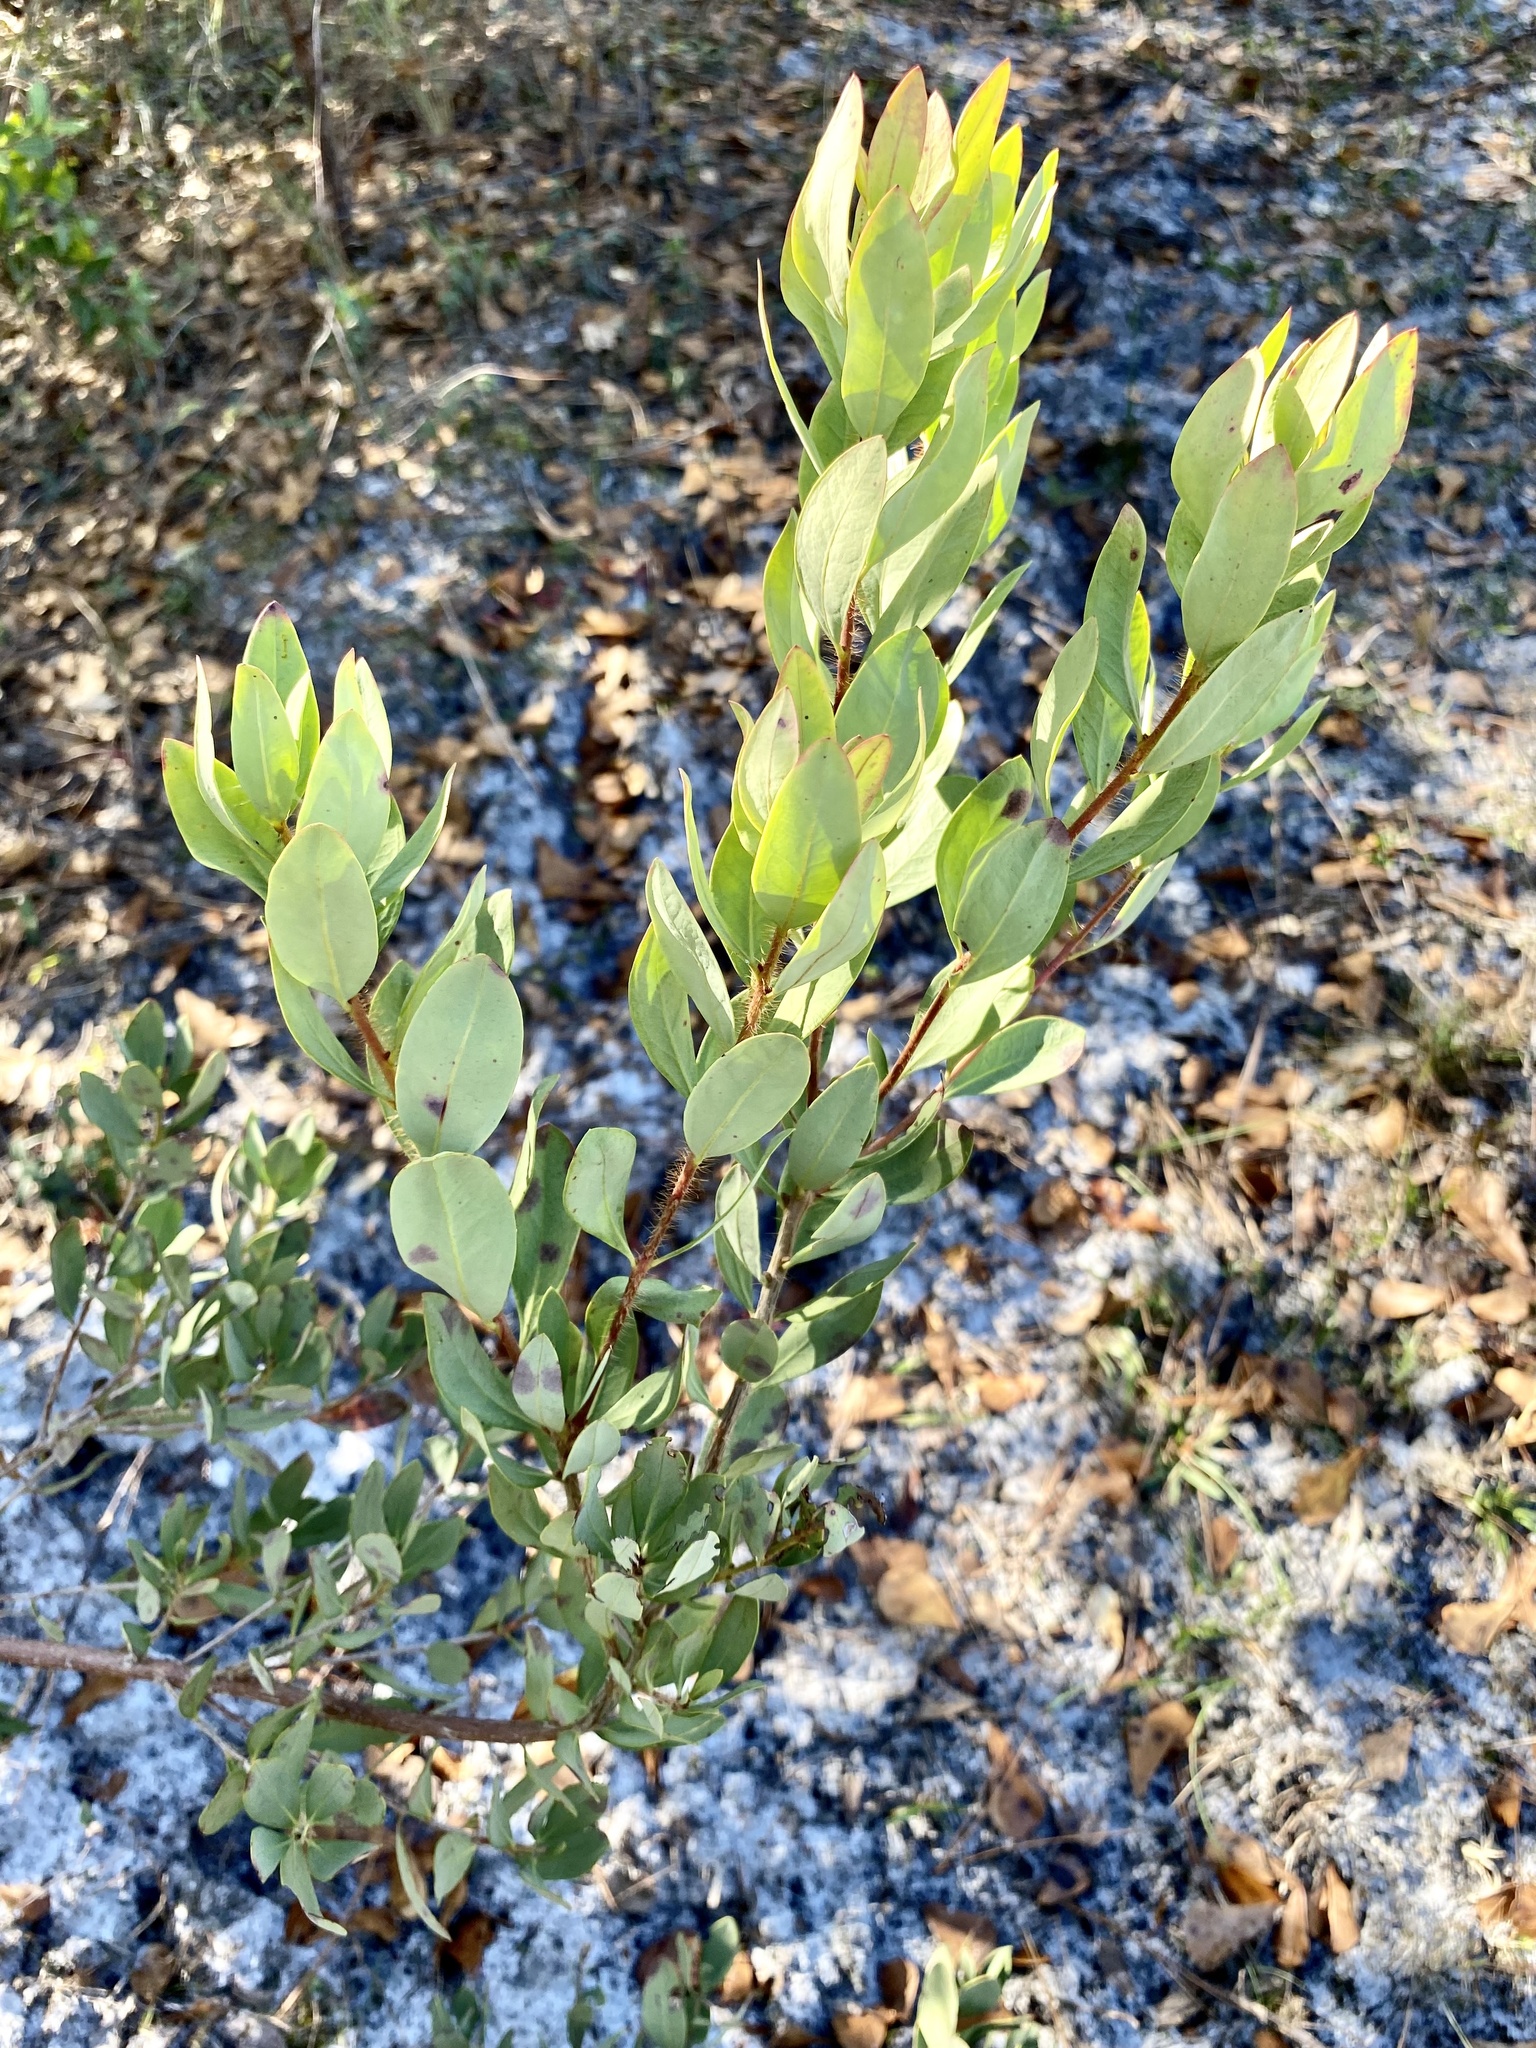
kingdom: Plantae
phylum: Tracheophyta
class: Magnoliopsida
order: Ericales
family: Ericaceae
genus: Bejaria
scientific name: Bejaria racemosa
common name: Tarflower
